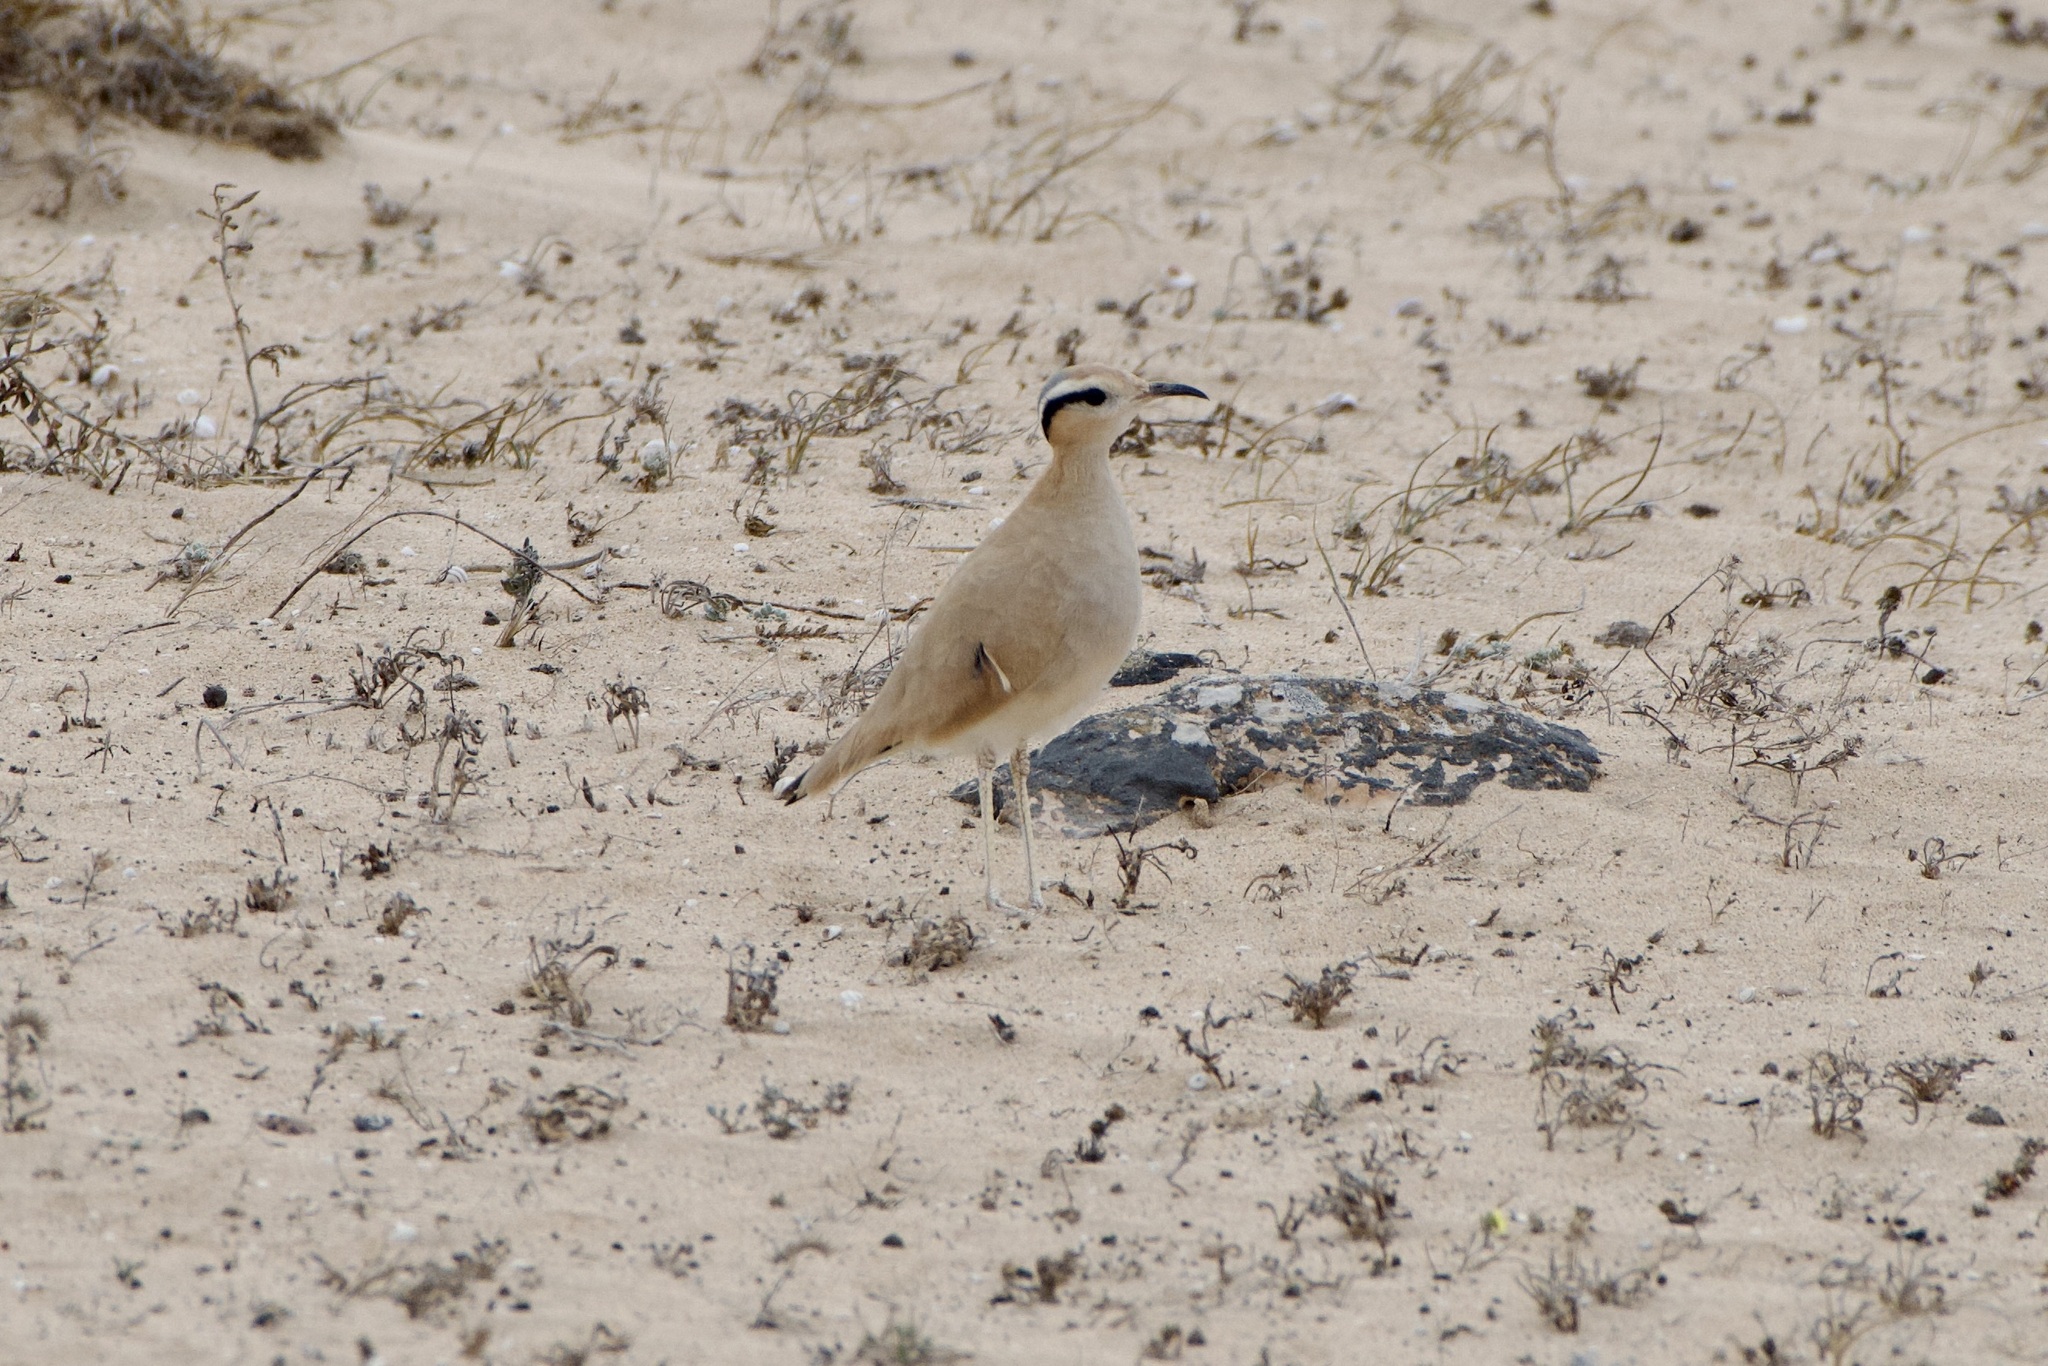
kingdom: Animalia
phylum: Chordata
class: Aves
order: Charadriiformes
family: Glareolidae
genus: Cursorius
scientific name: Cursorius cursor
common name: Cream-colored courser
